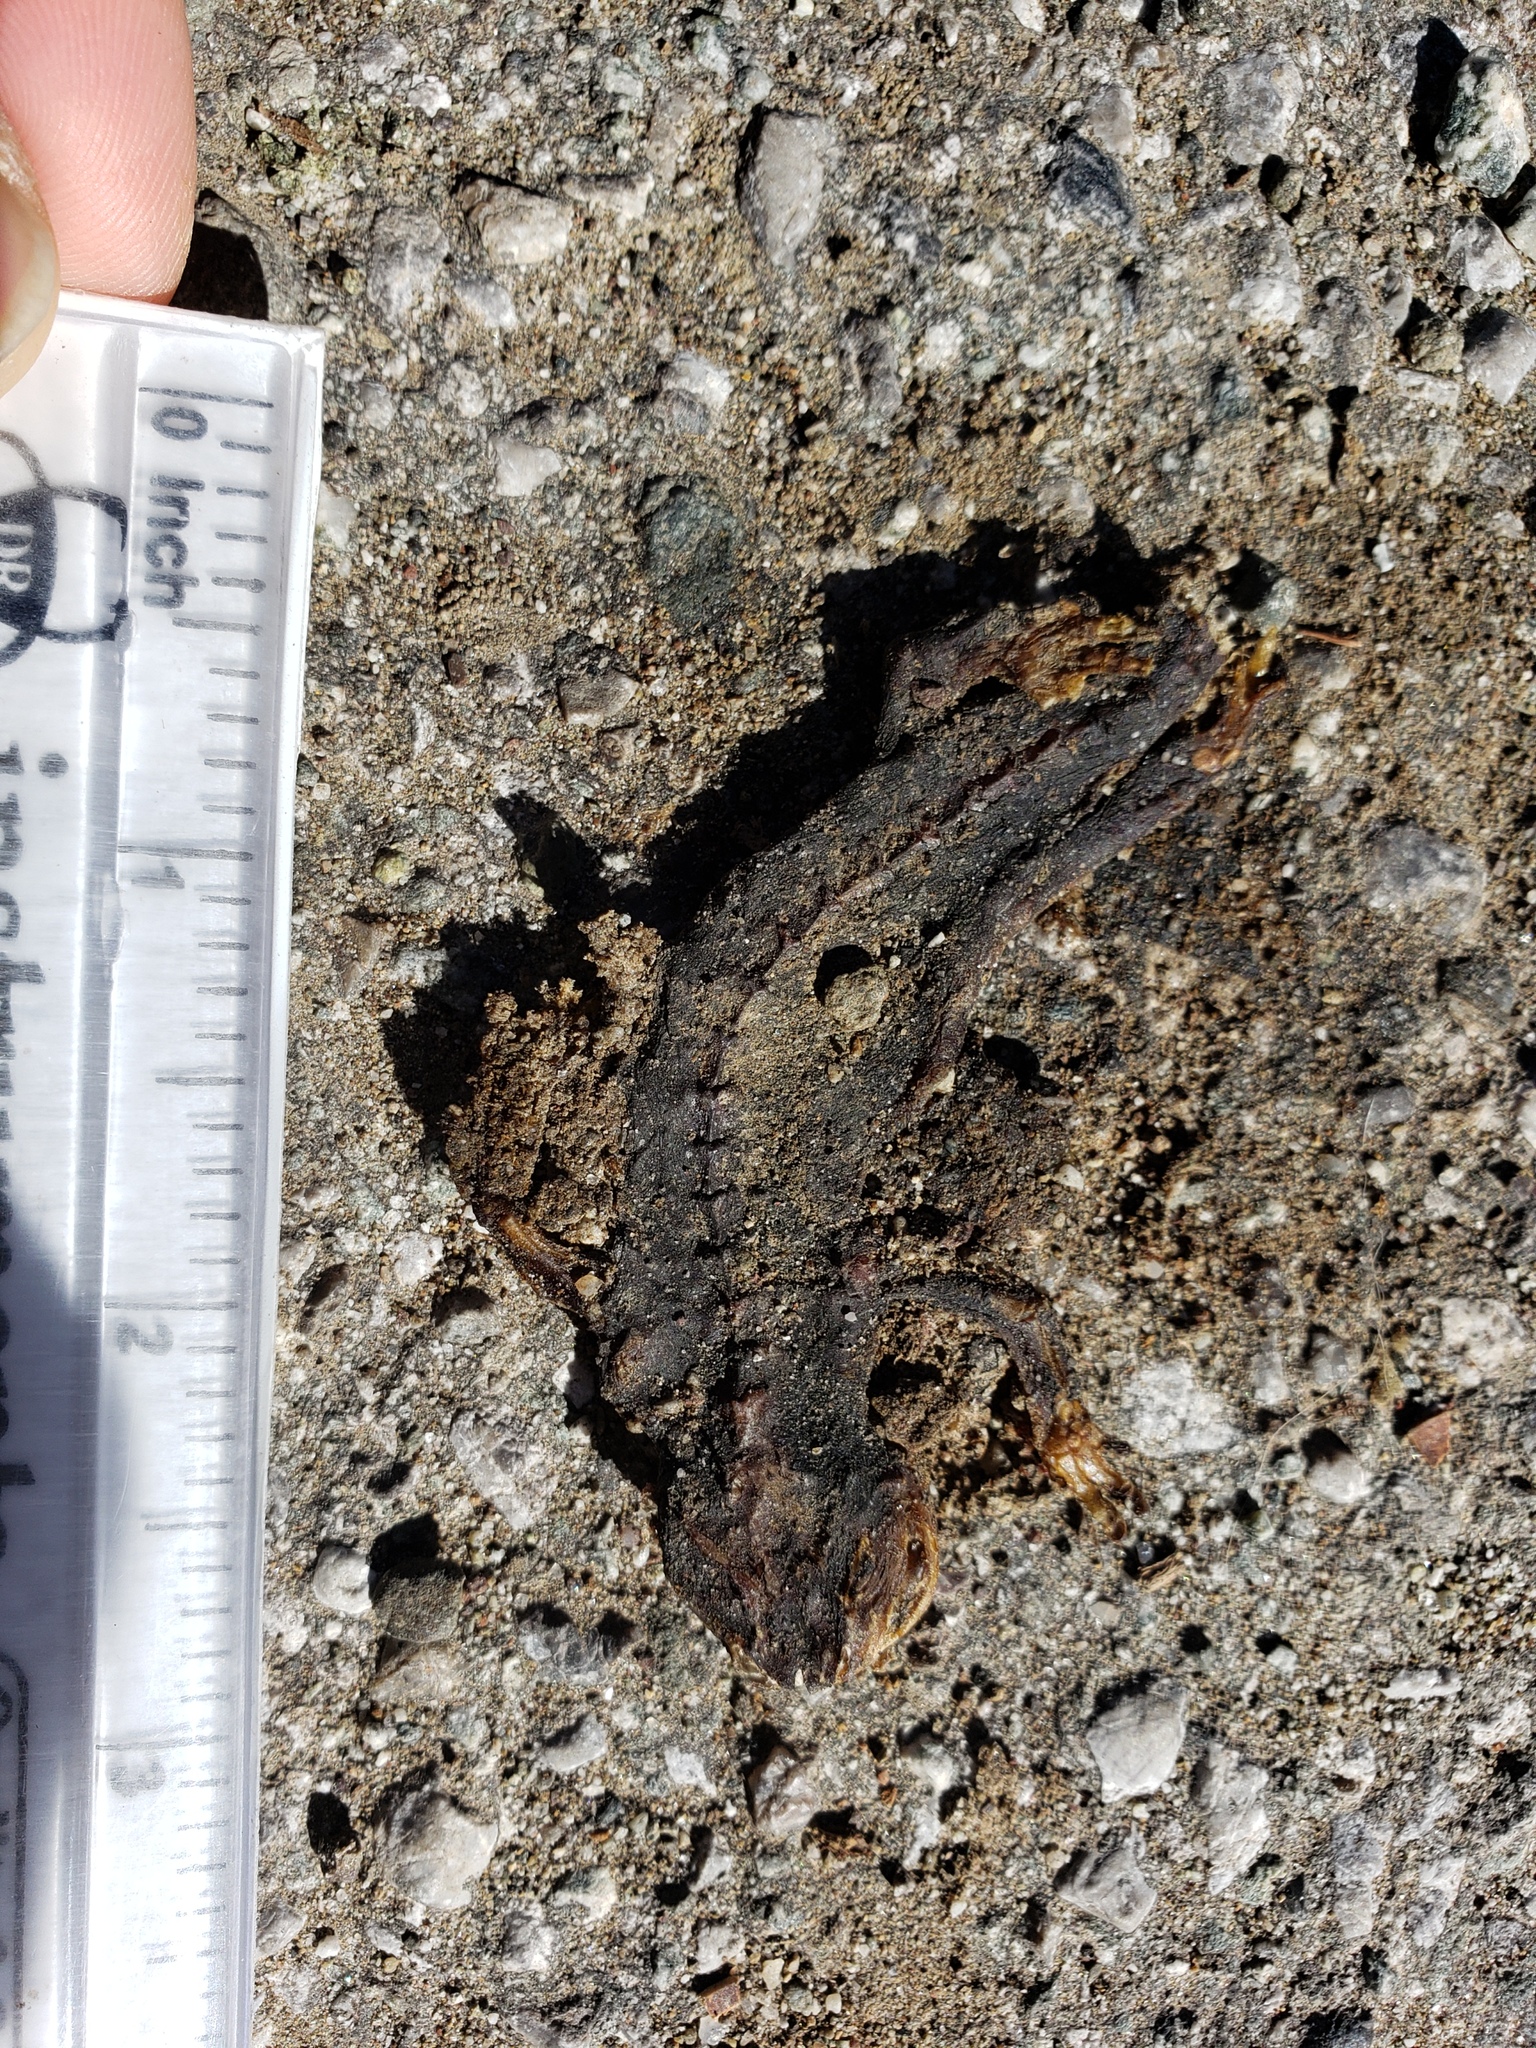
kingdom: Animalia
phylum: Chordata
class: Amphibia
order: Caudata
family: Salamandridae
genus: Taricha
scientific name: Taricha
